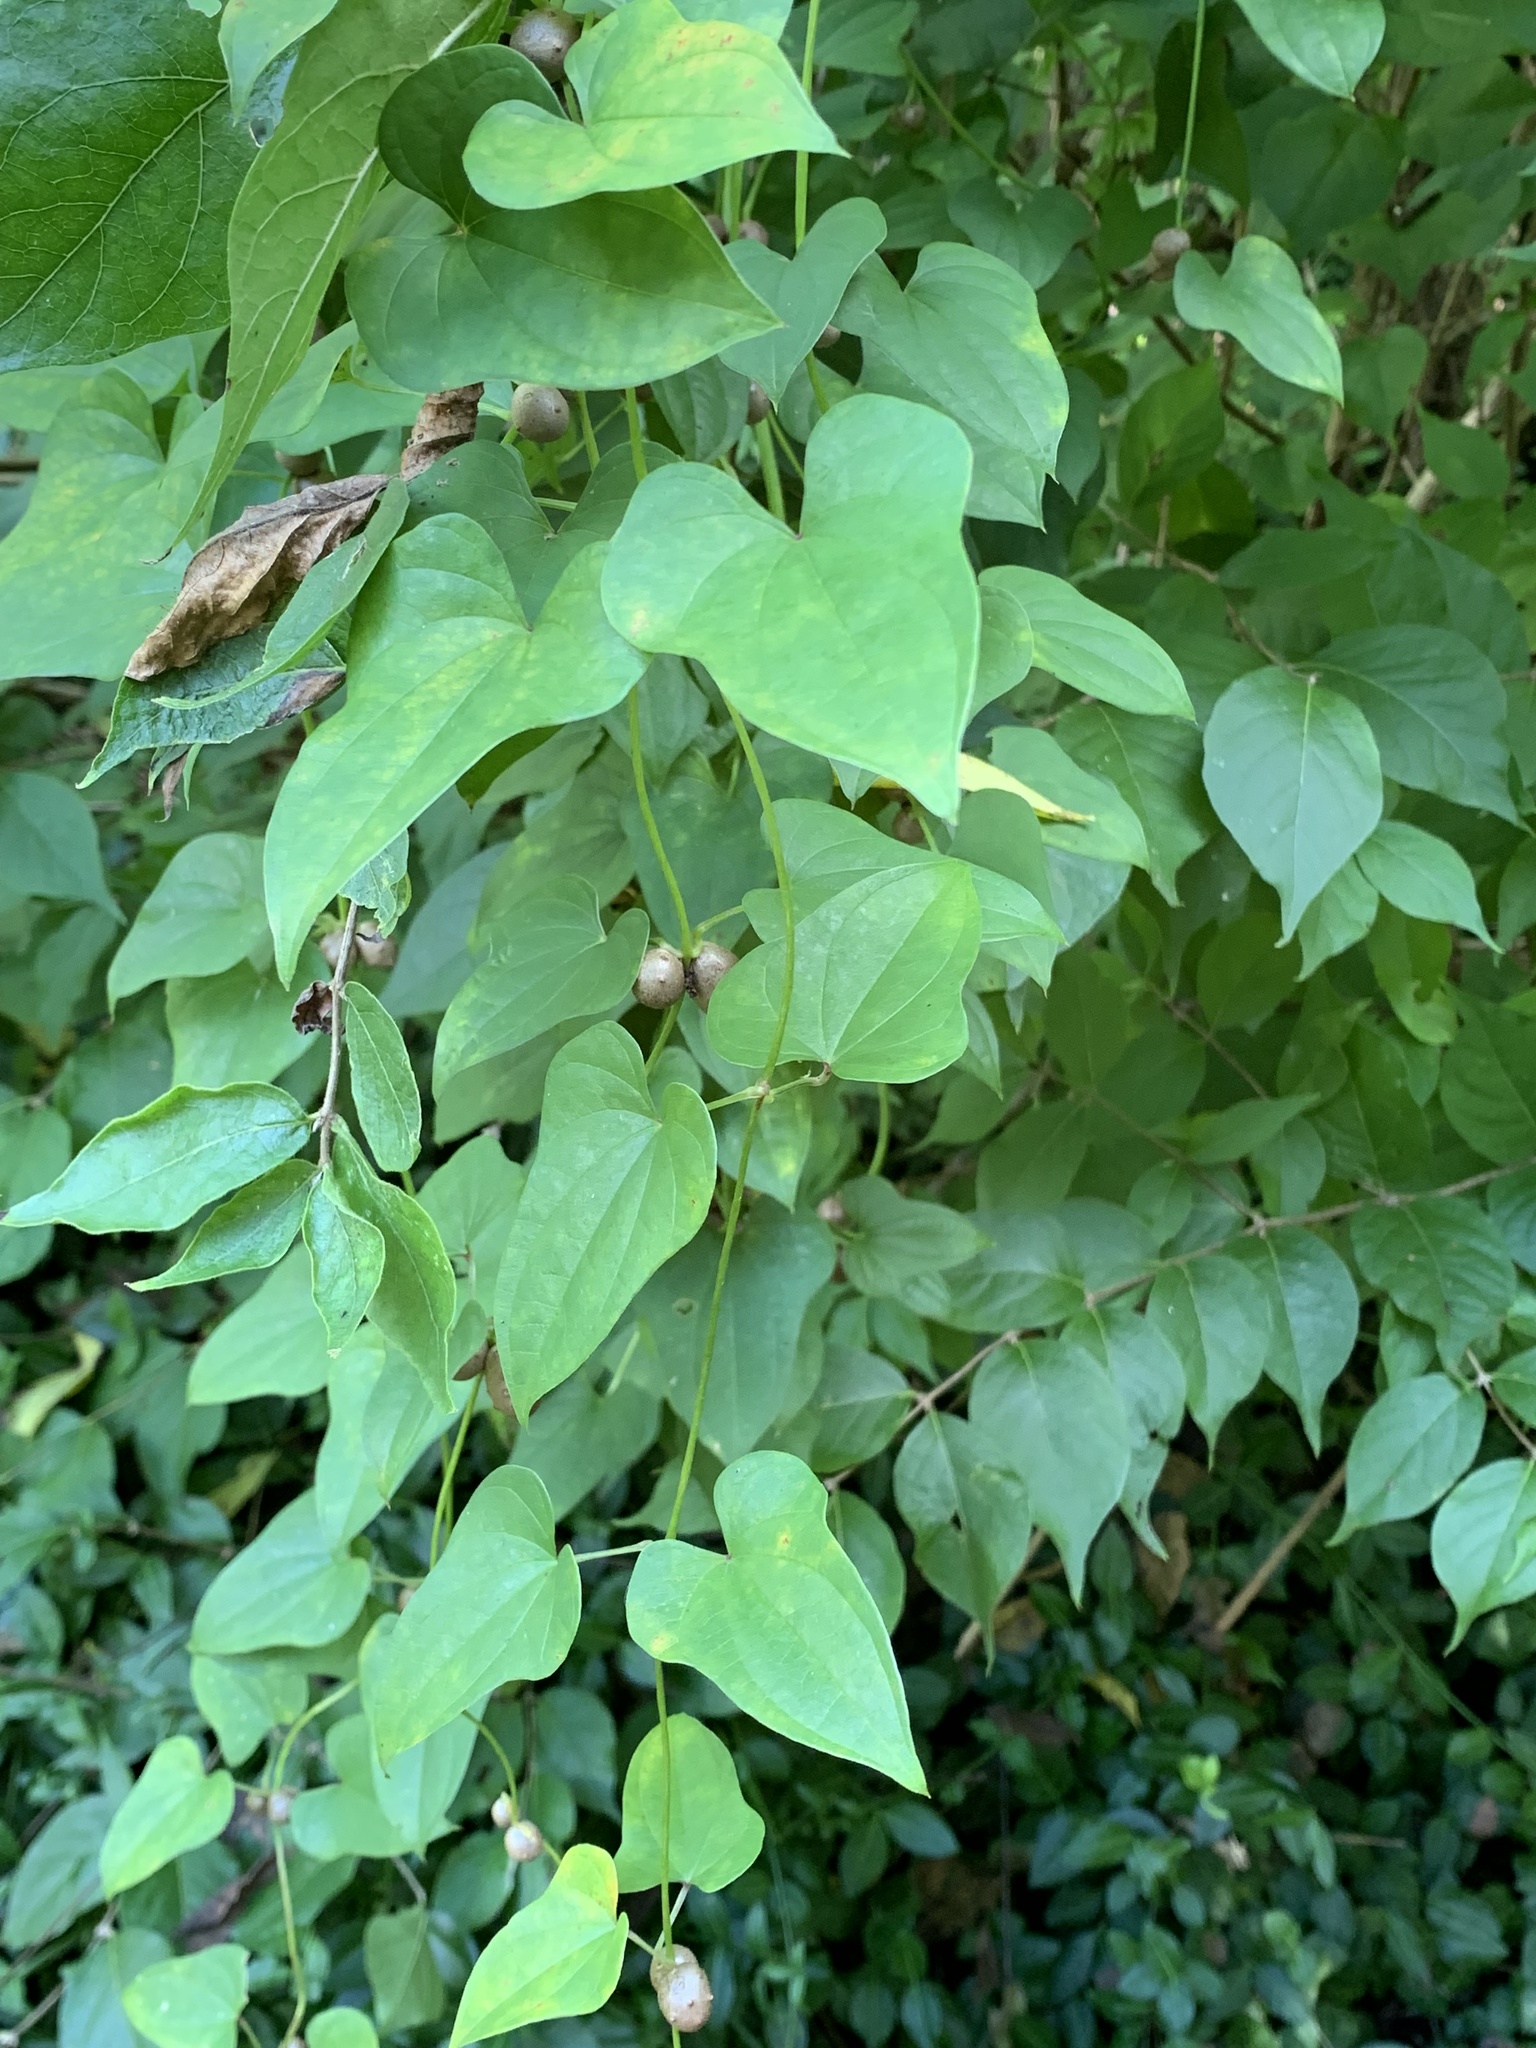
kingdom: Plantae
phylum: Tracheophyta
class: Liliopsida
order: Dioscoreales
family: Dioscoreaceae
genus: Dioscorea
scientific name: Dioscorea polystachya
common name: Chinese yam
